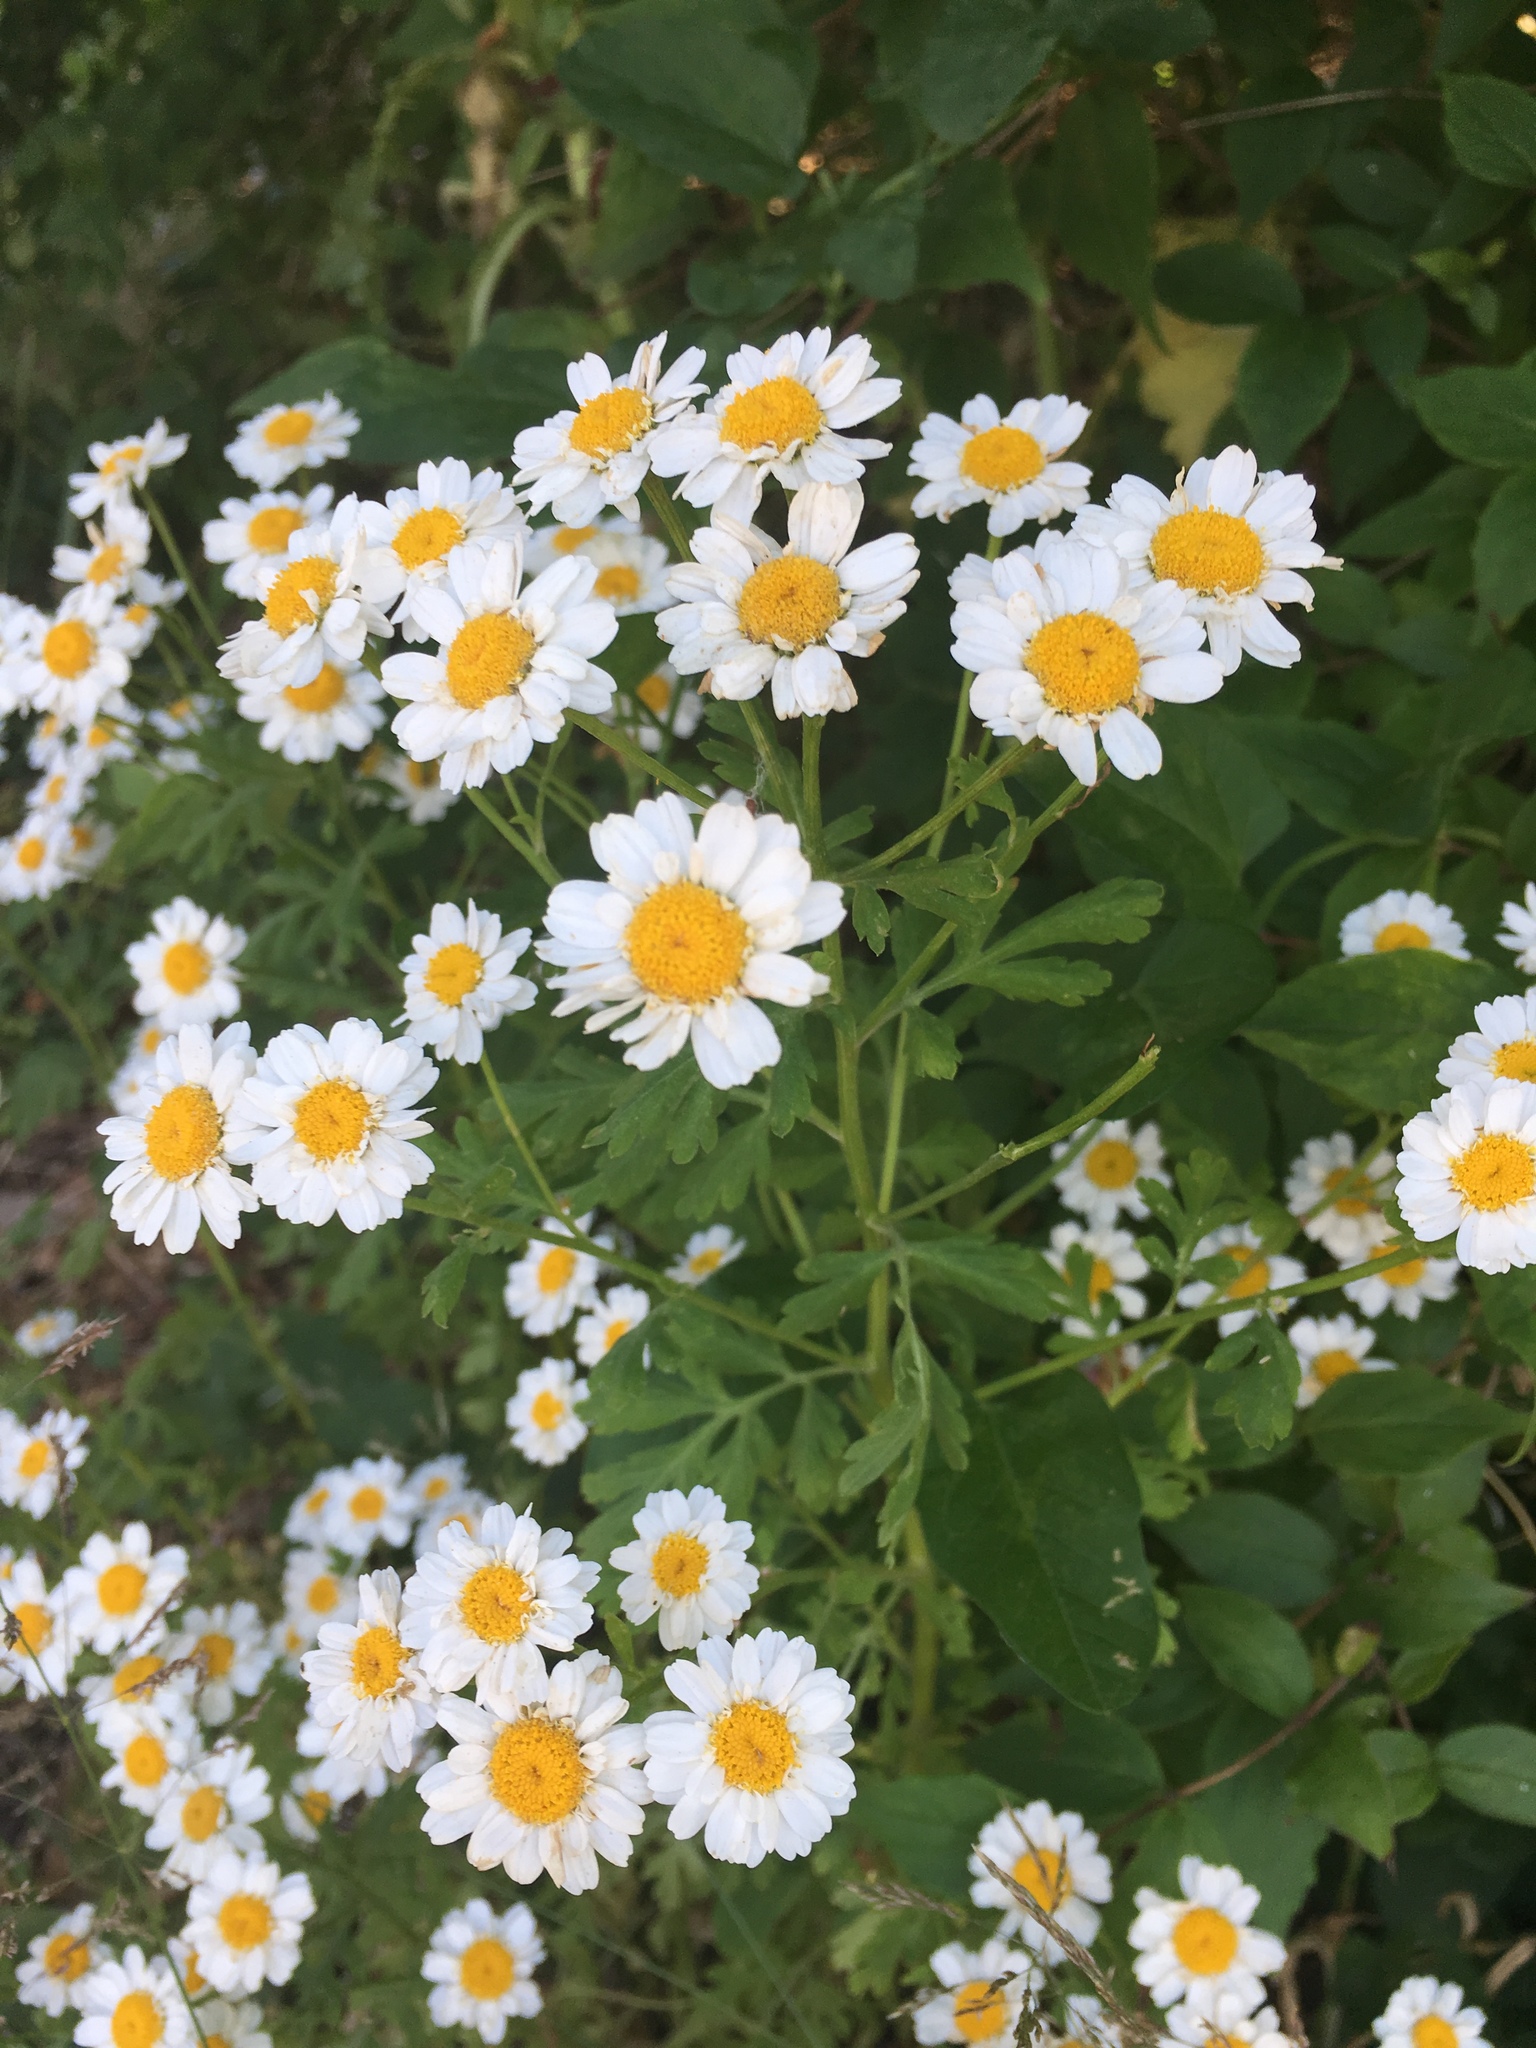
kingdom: Plantae
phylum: Tracheophyta
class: Magnoliopsida
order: Asterales
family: Asteraceae
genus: Tanacetum
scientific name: Tanacetum parthenium
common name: Feverfew
